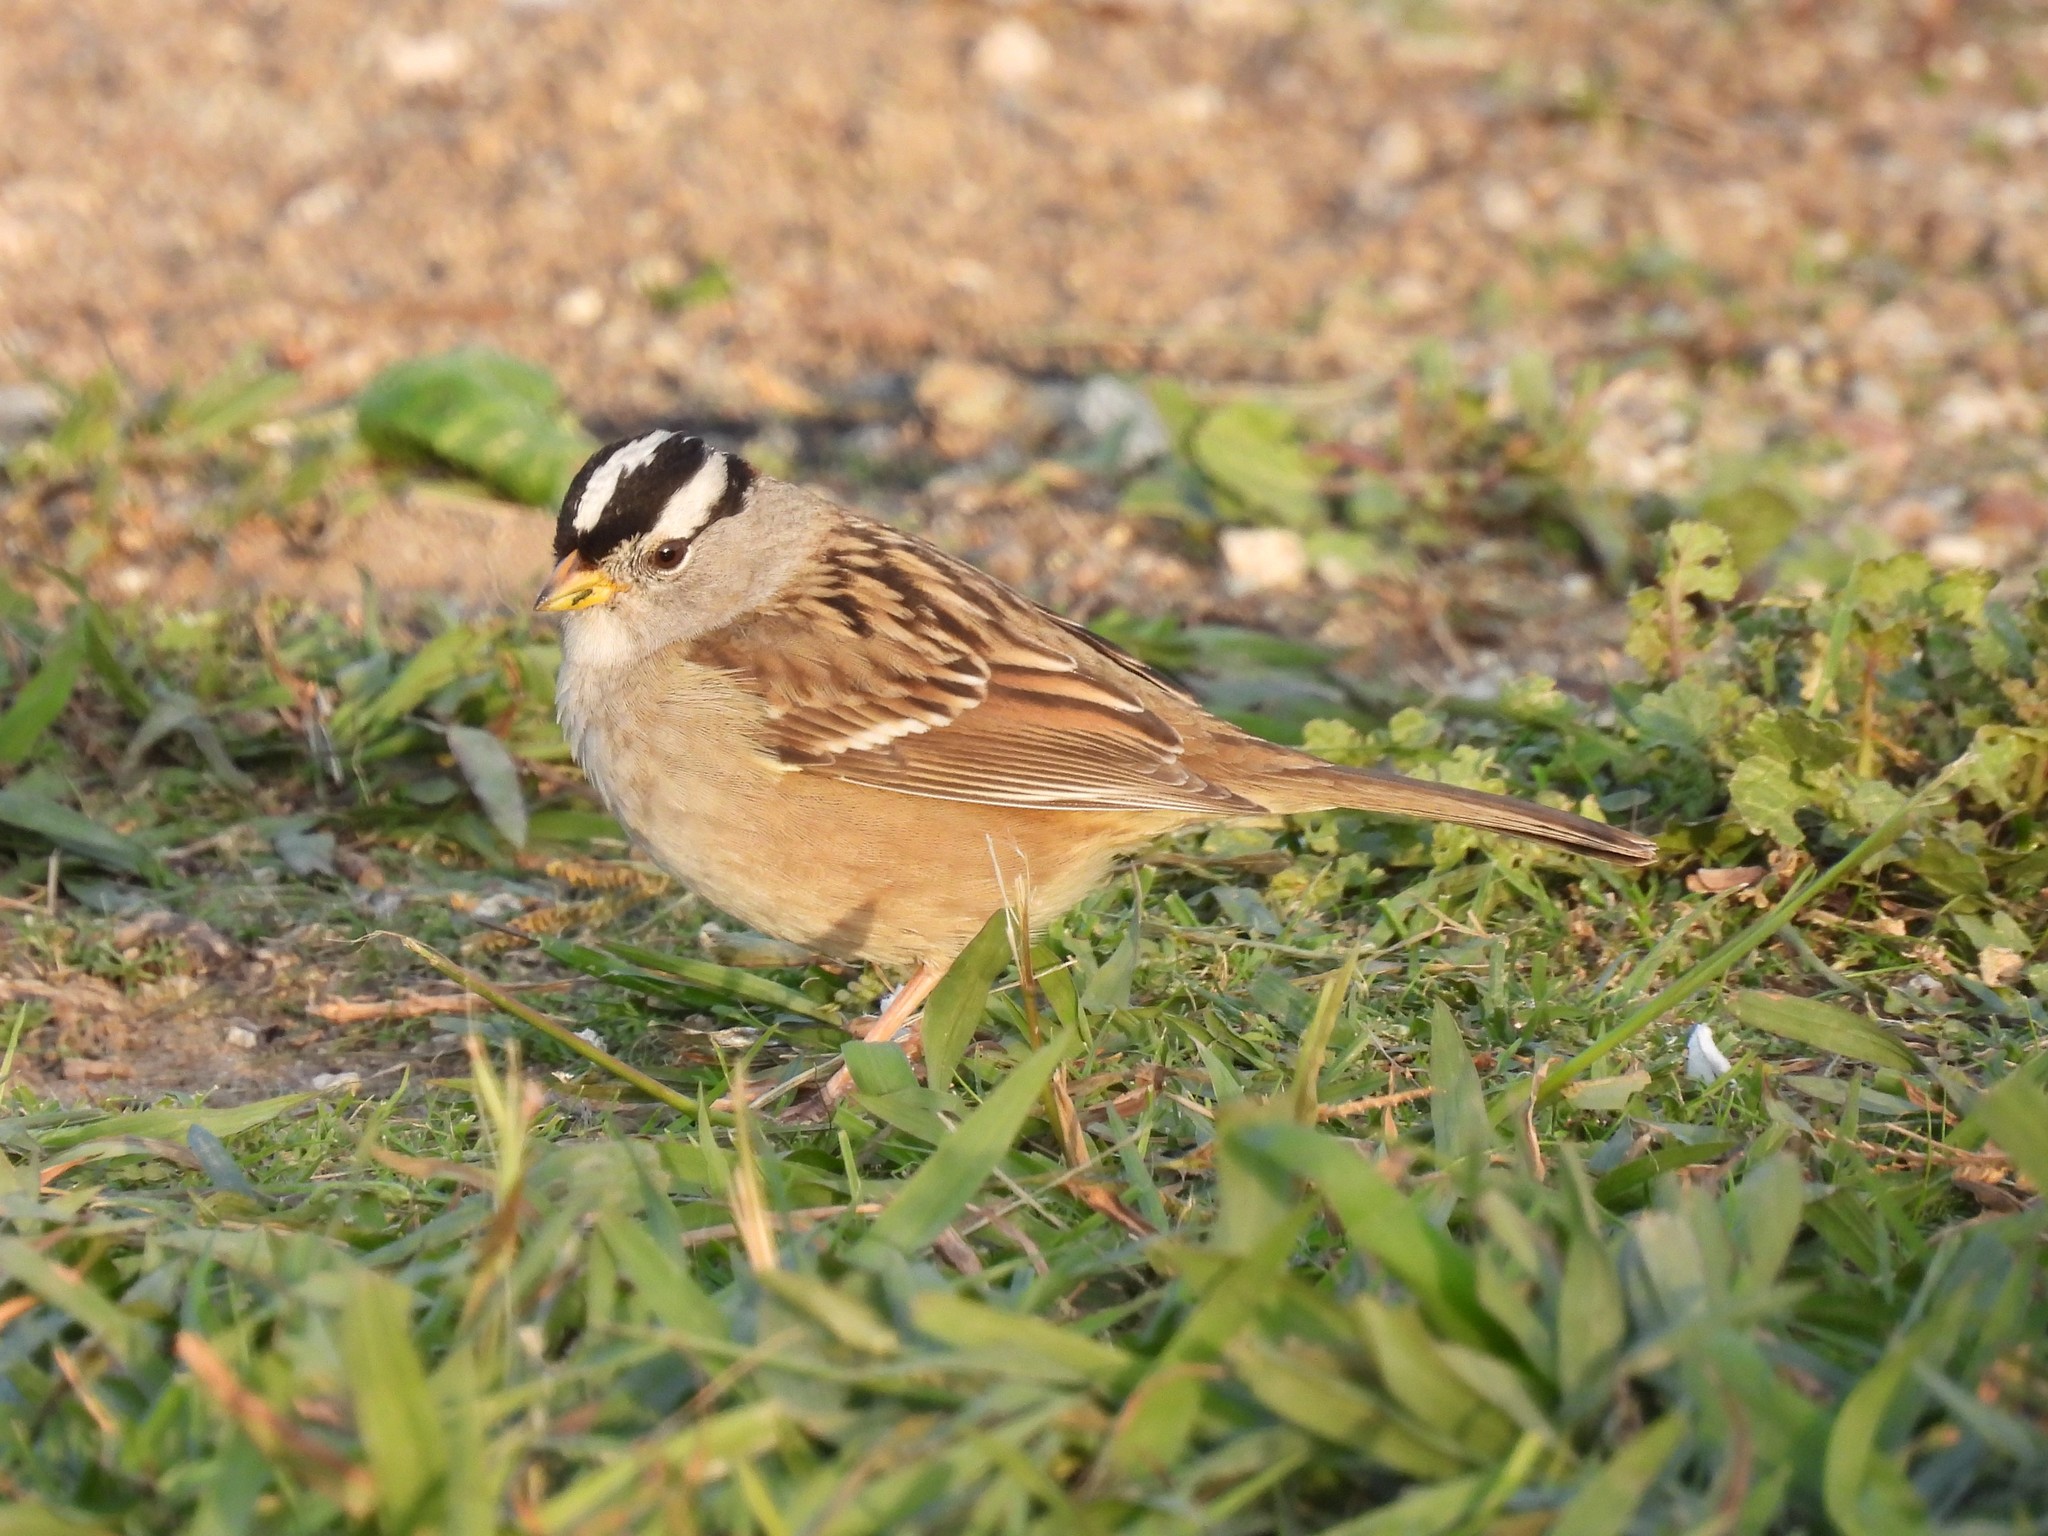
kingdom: Animalia
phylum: Chordata
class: Aves
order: Passeriformes
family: Passerellidae
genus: Zonotrichia
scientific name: Zonotrichia leucophrys
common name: White-crowned sparrow
